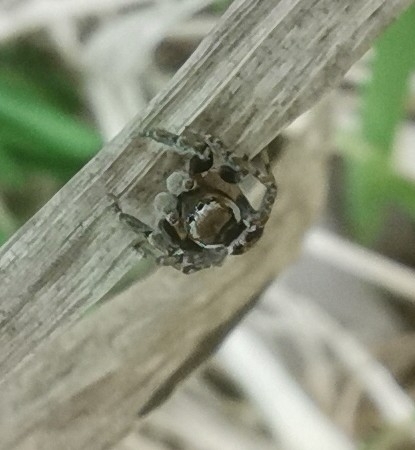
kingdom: Animalia
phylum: Arthropoda
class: Arachnida
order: Araneae
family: Salticidae
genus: Evarcha
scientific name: Evarcha falcata
